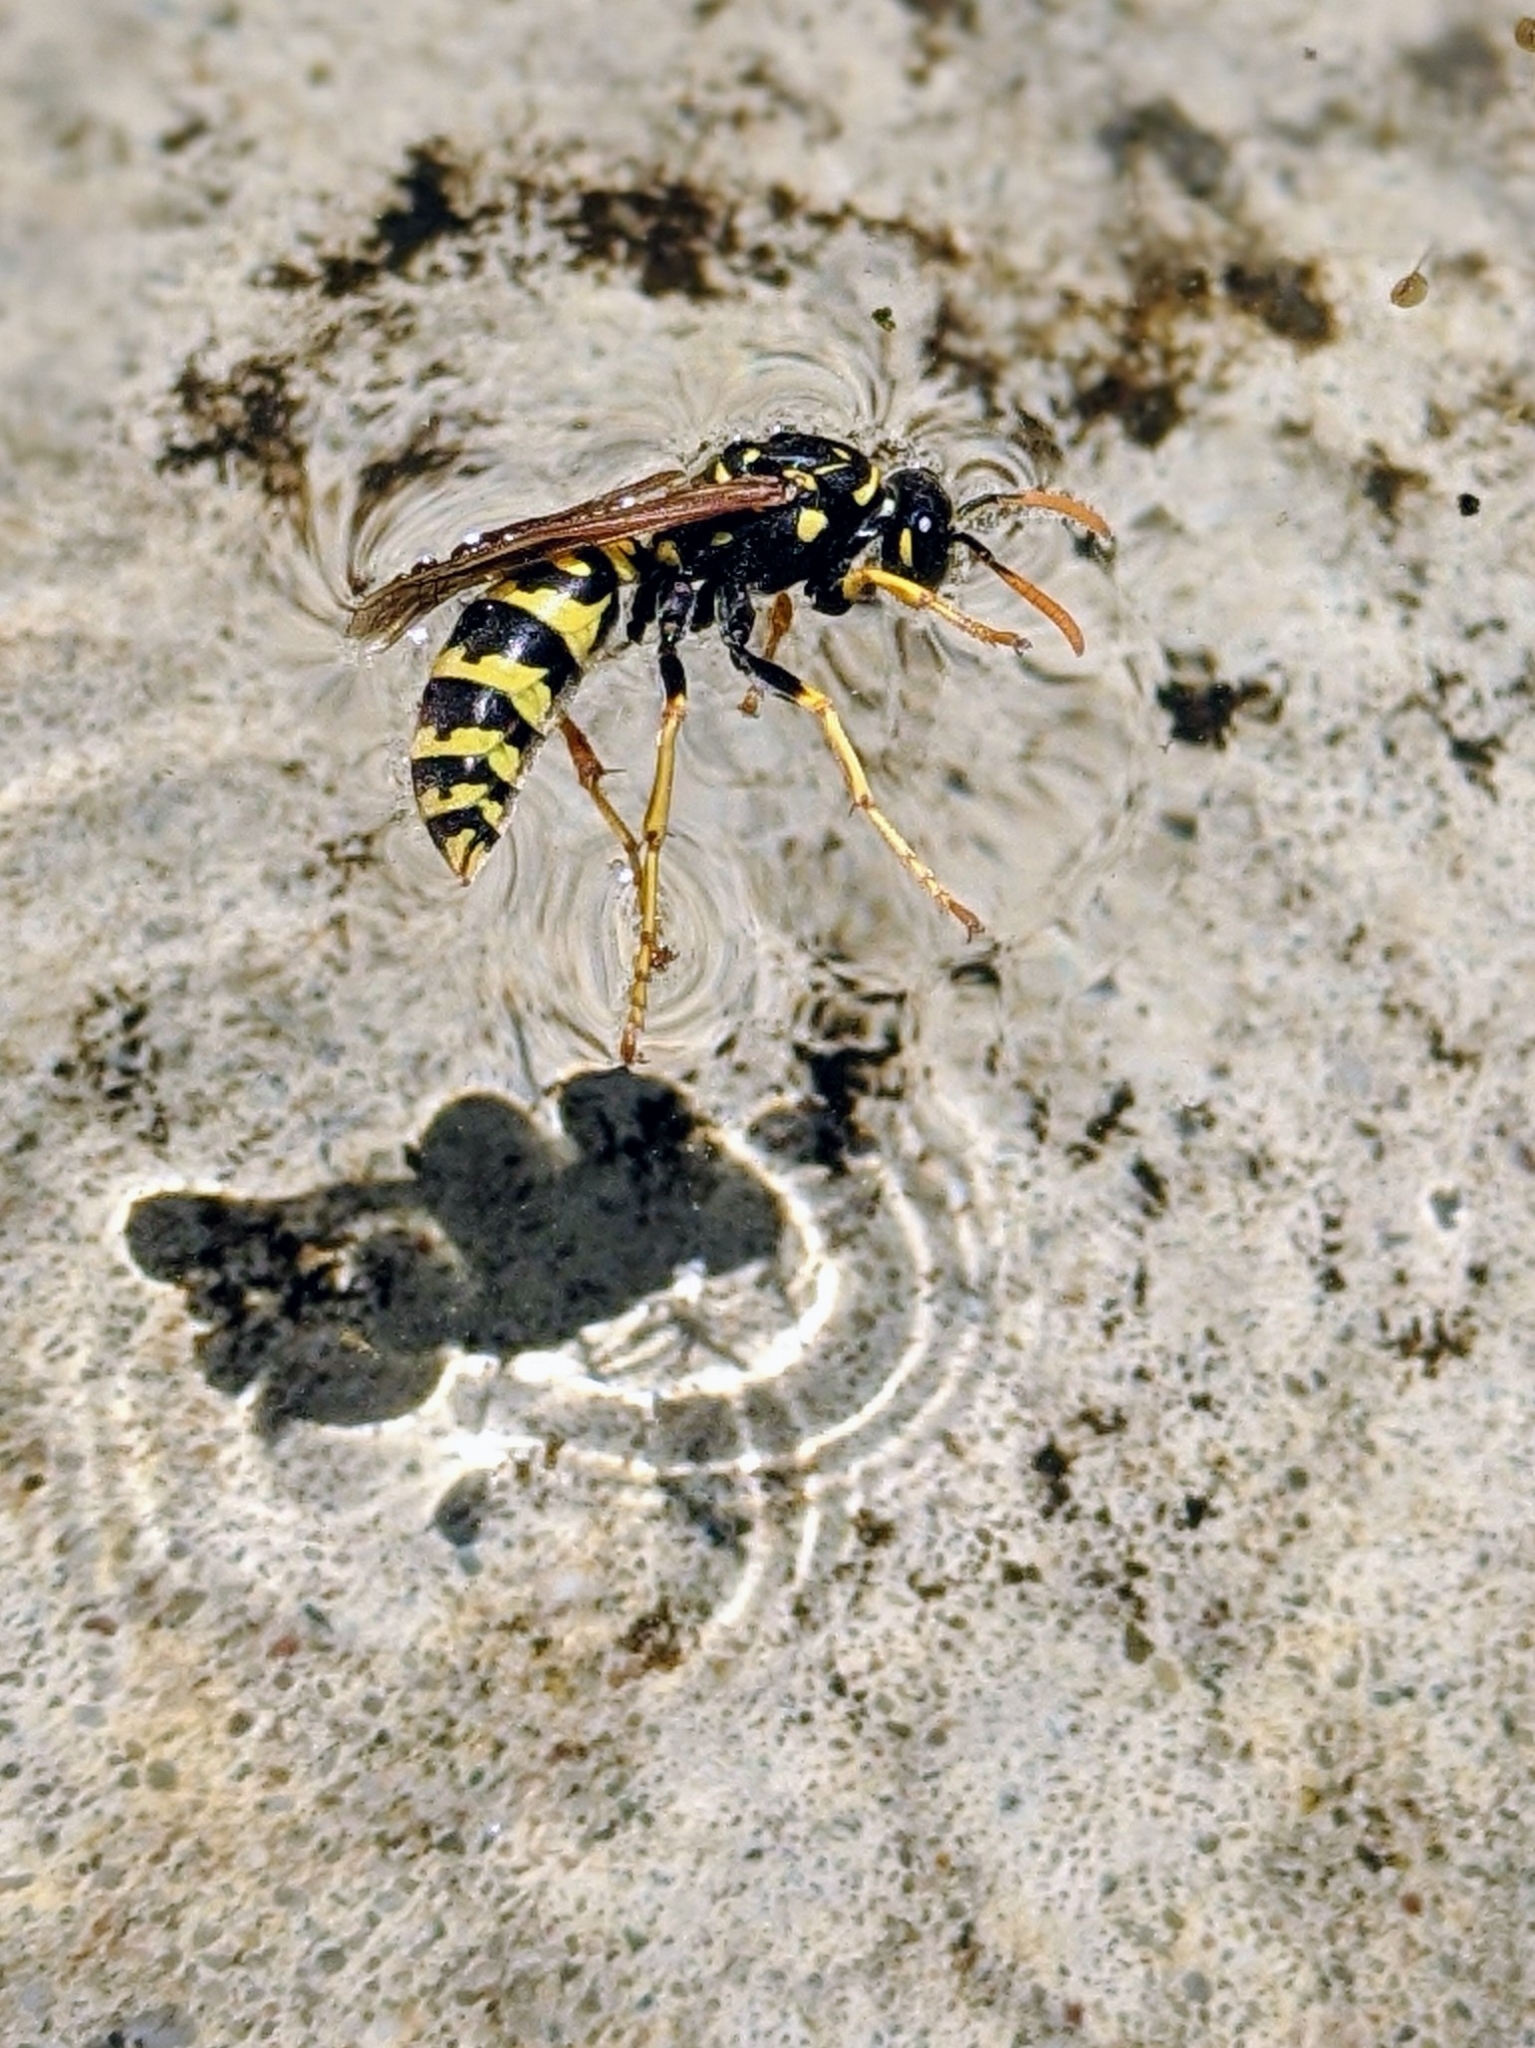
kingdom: Animalia
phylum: Arthropoda
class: Insecta
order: Hymenoptera
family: Eumenidae
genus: Polistes
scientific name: Polistes dominula
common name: Paper wasp
